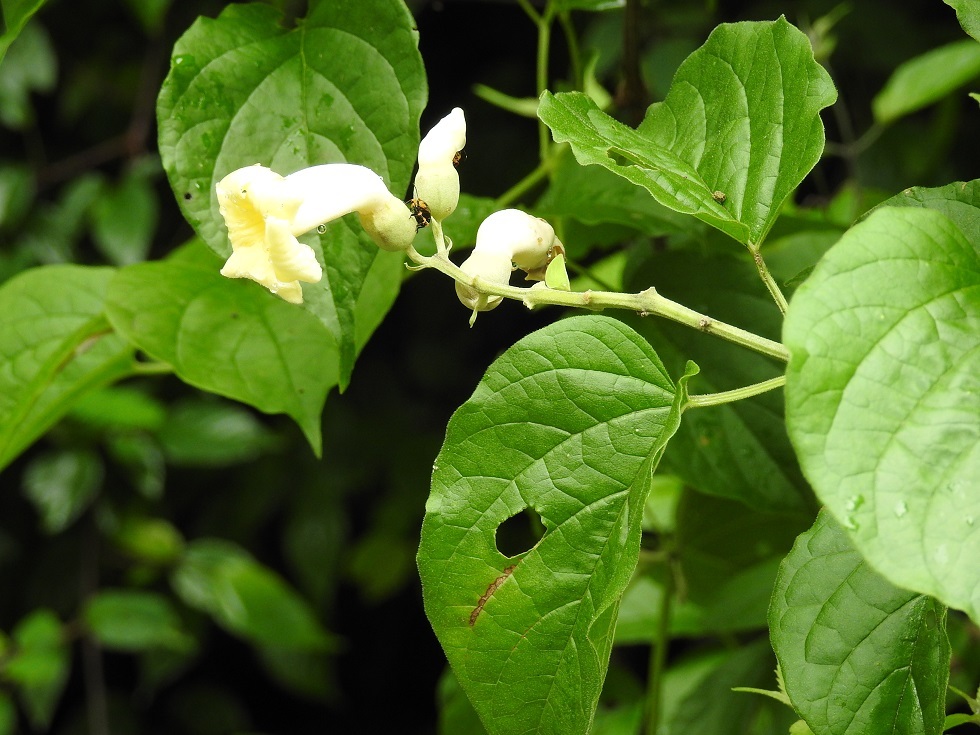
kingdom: Plantae
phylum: Tracheophyta
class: Magnoliopsida
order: Lamiales
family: Bignoniaceae
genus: Amphilophium
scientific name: Amphilophium crucigerum
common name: Monkey comb
